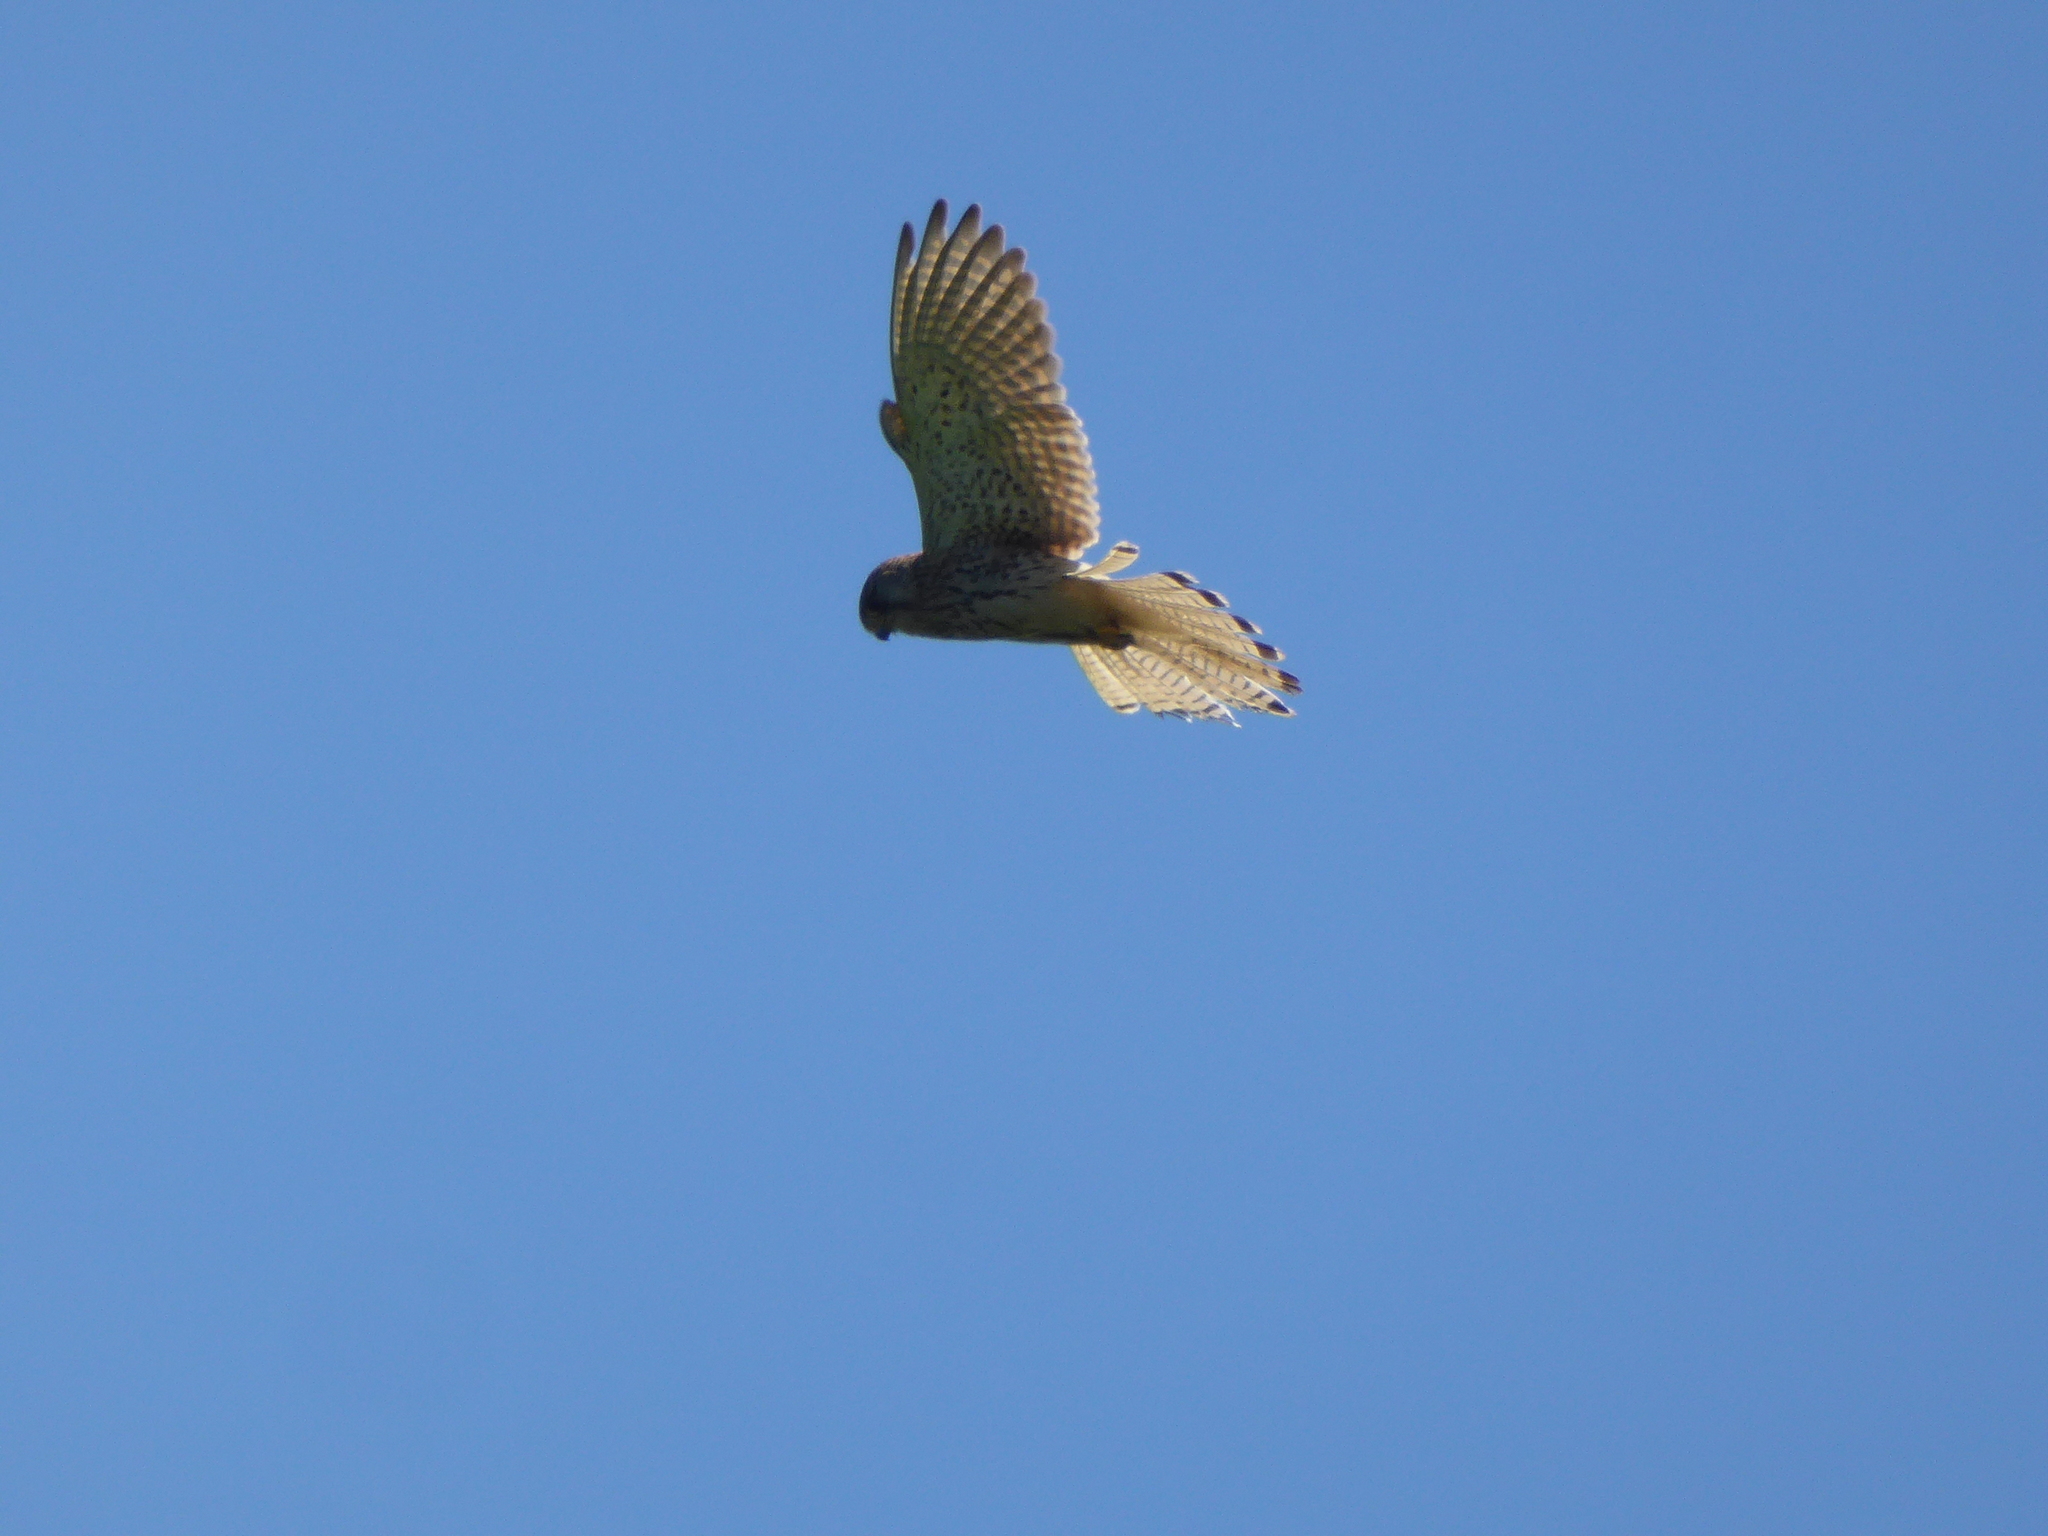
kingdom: Animalia
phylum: Chordata
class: Aves
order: Falconiformes
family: Falconidae
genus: Falco
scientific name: Falco tinnunculus
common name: Common kestrel
